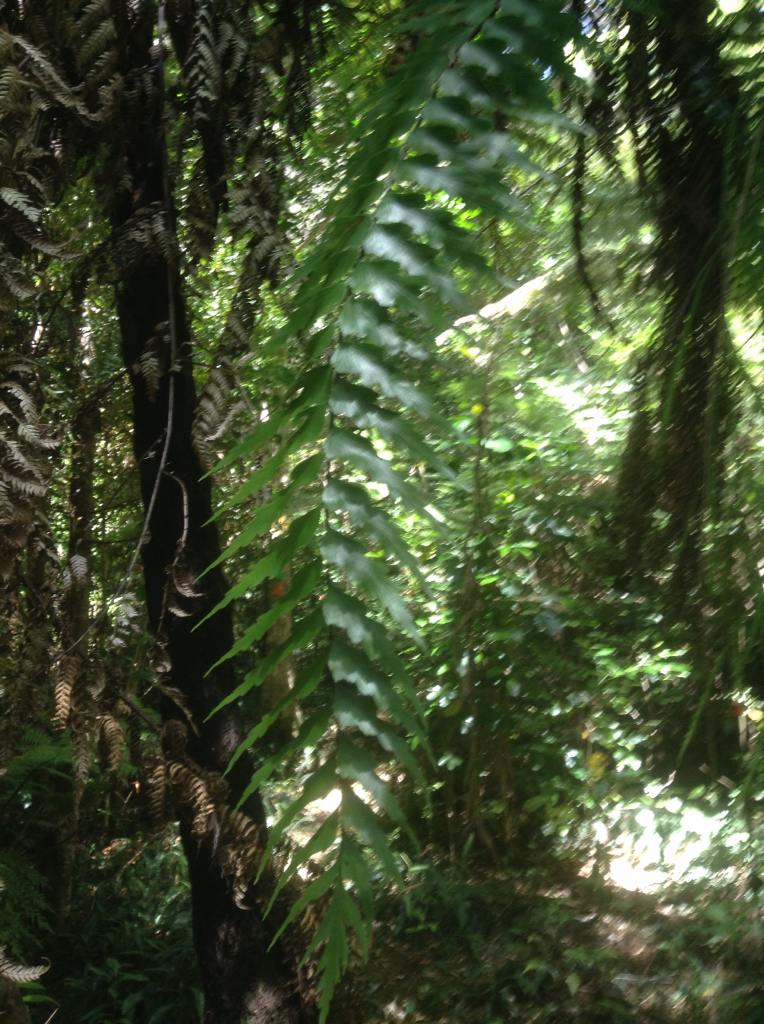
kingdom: Plantae
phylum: Tracheophyta
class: Polypodiopsida
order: Polypodiales
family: Aspleniaceae
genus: Asplenium
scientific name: Asplenium polyodon
